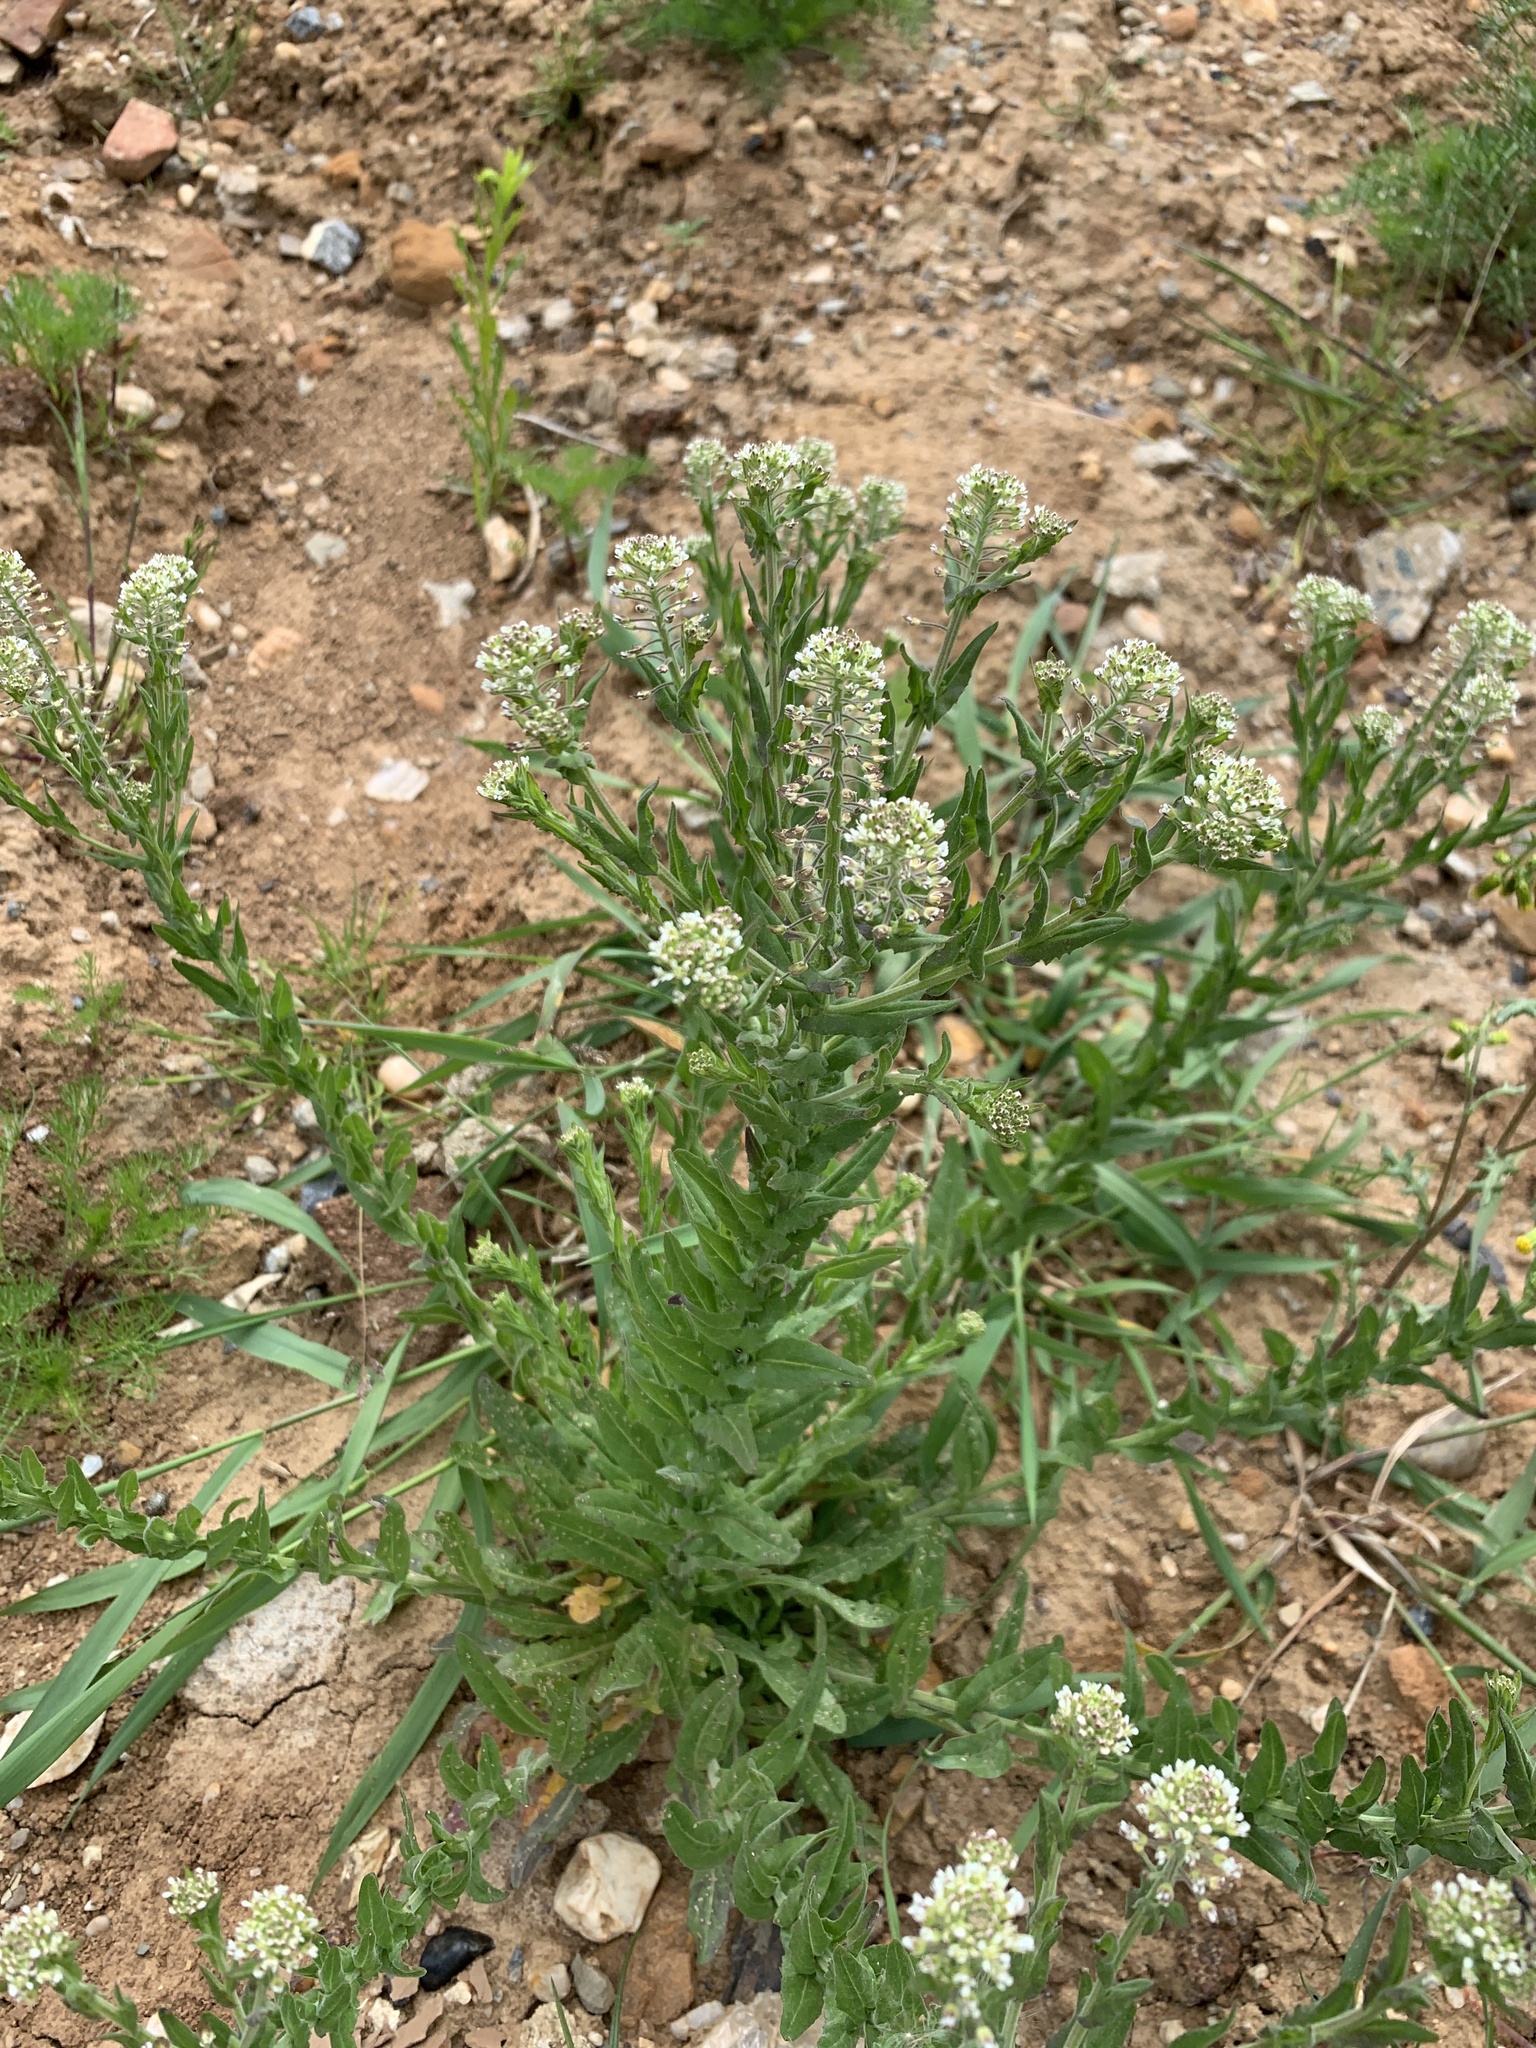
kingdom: Plantae
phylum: Tracheophyta
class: Magnoliopsida
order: Brassicales
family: Brassicaceae
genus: Lepidium
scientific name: Lepidium campestre
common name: Field pepperwort
